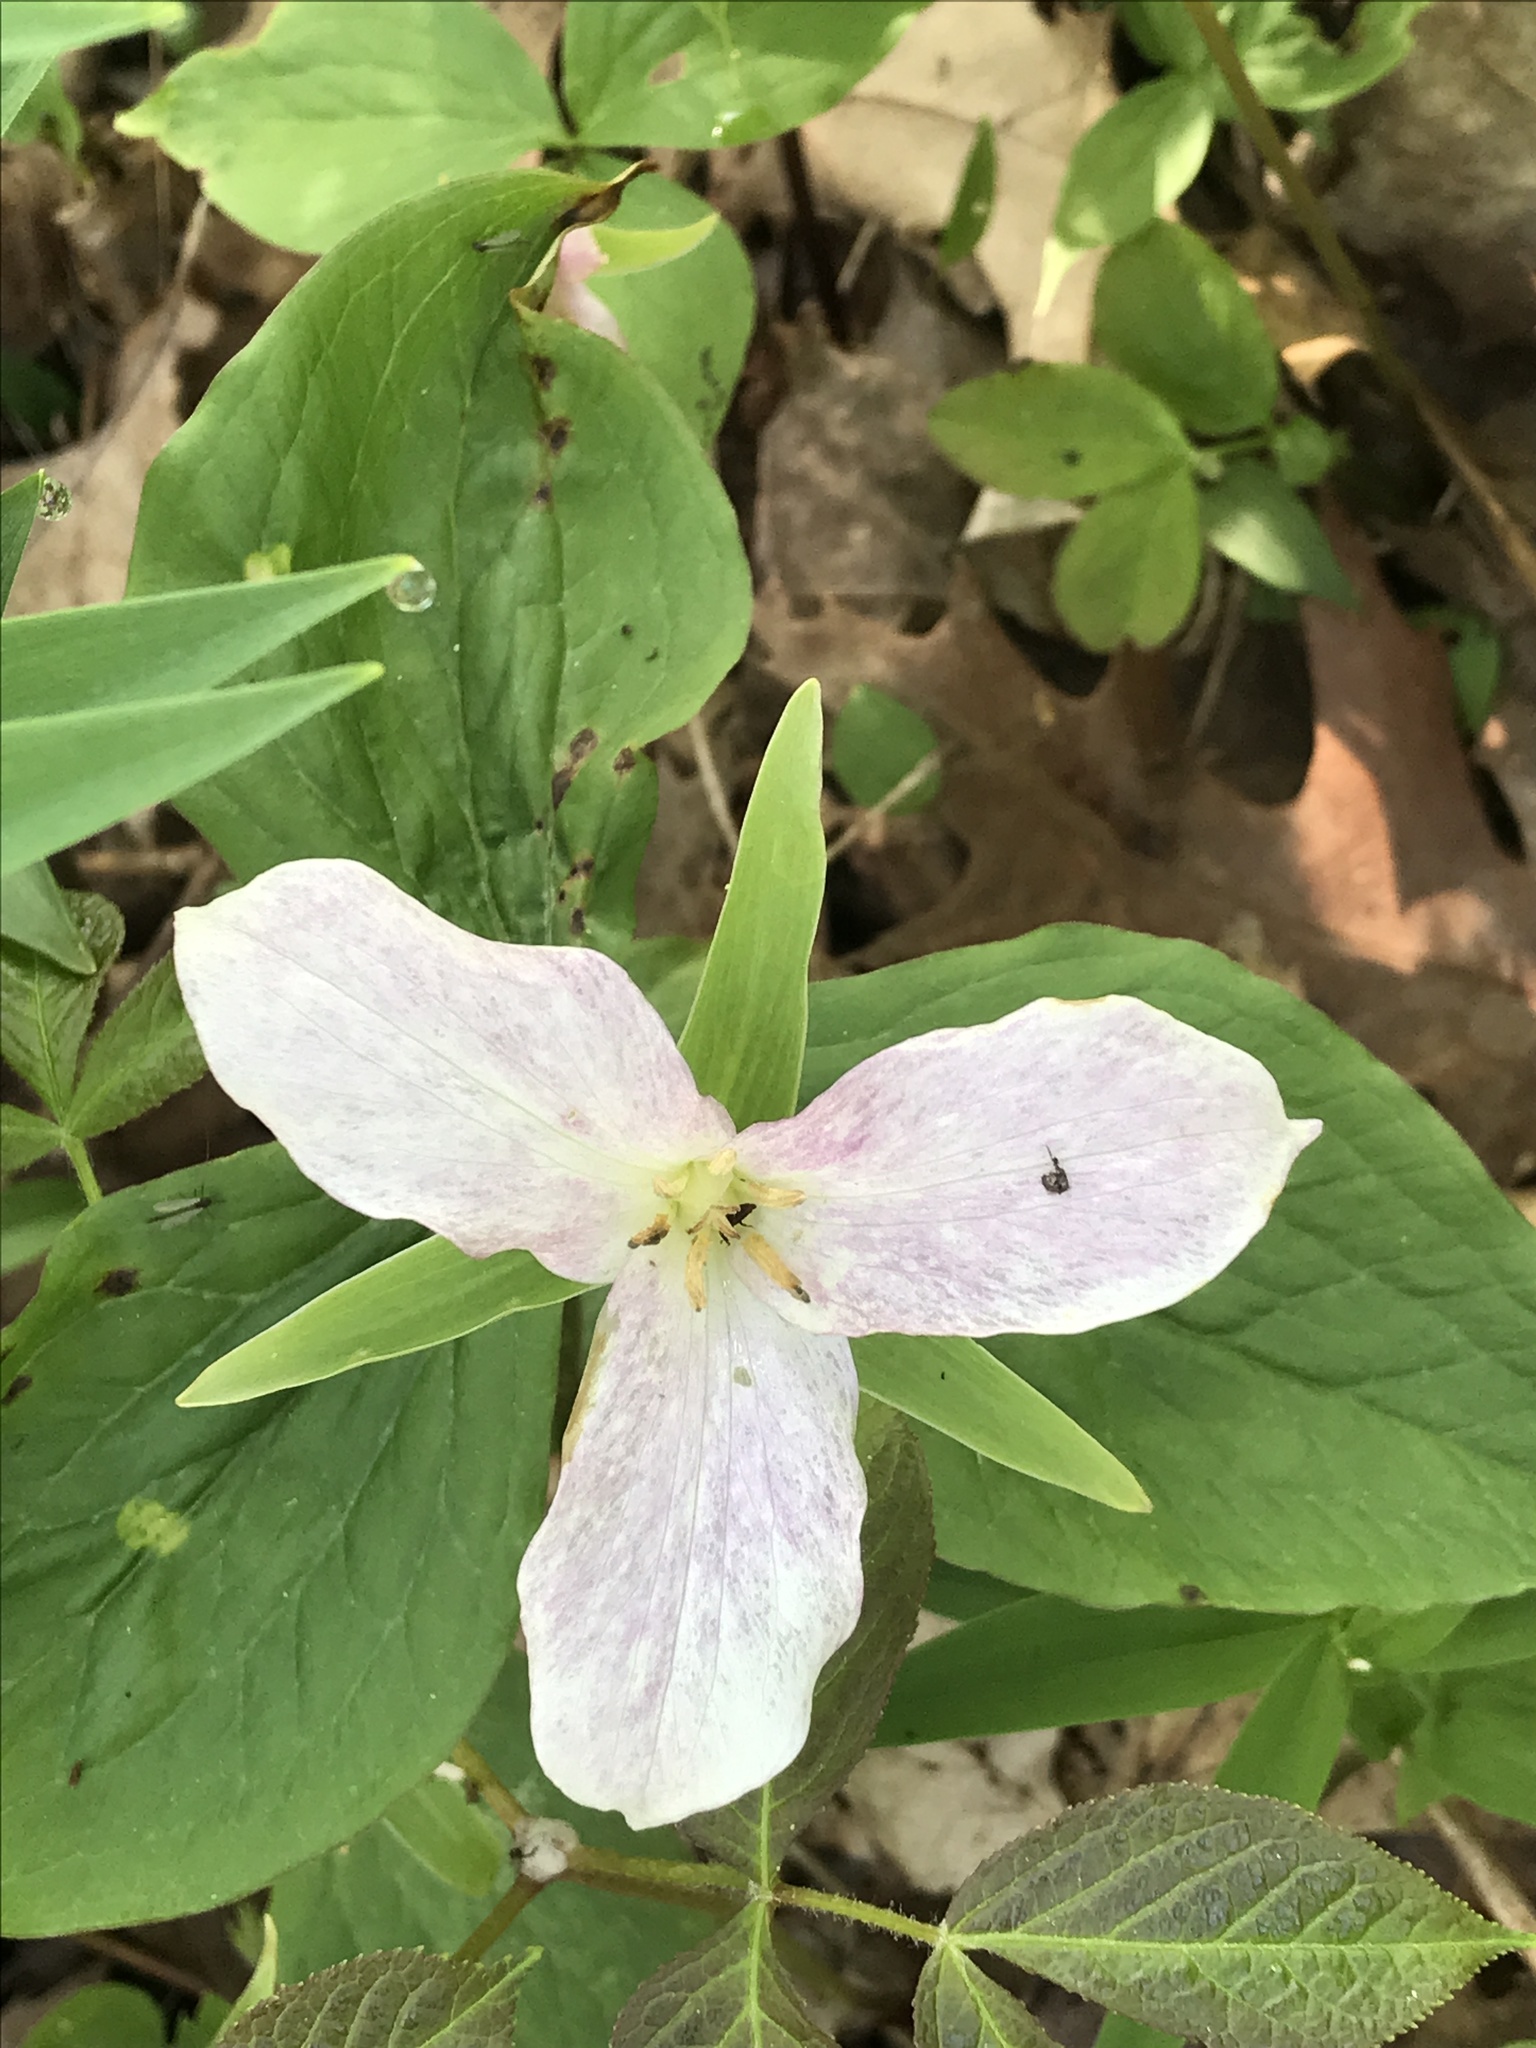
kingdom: Plantae
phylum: Tracheophyta
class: Liliopsida
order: Liliales
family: Melanthiaceae
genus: Trillium
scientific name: Trillium grandiflorum
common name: Great white trillium
